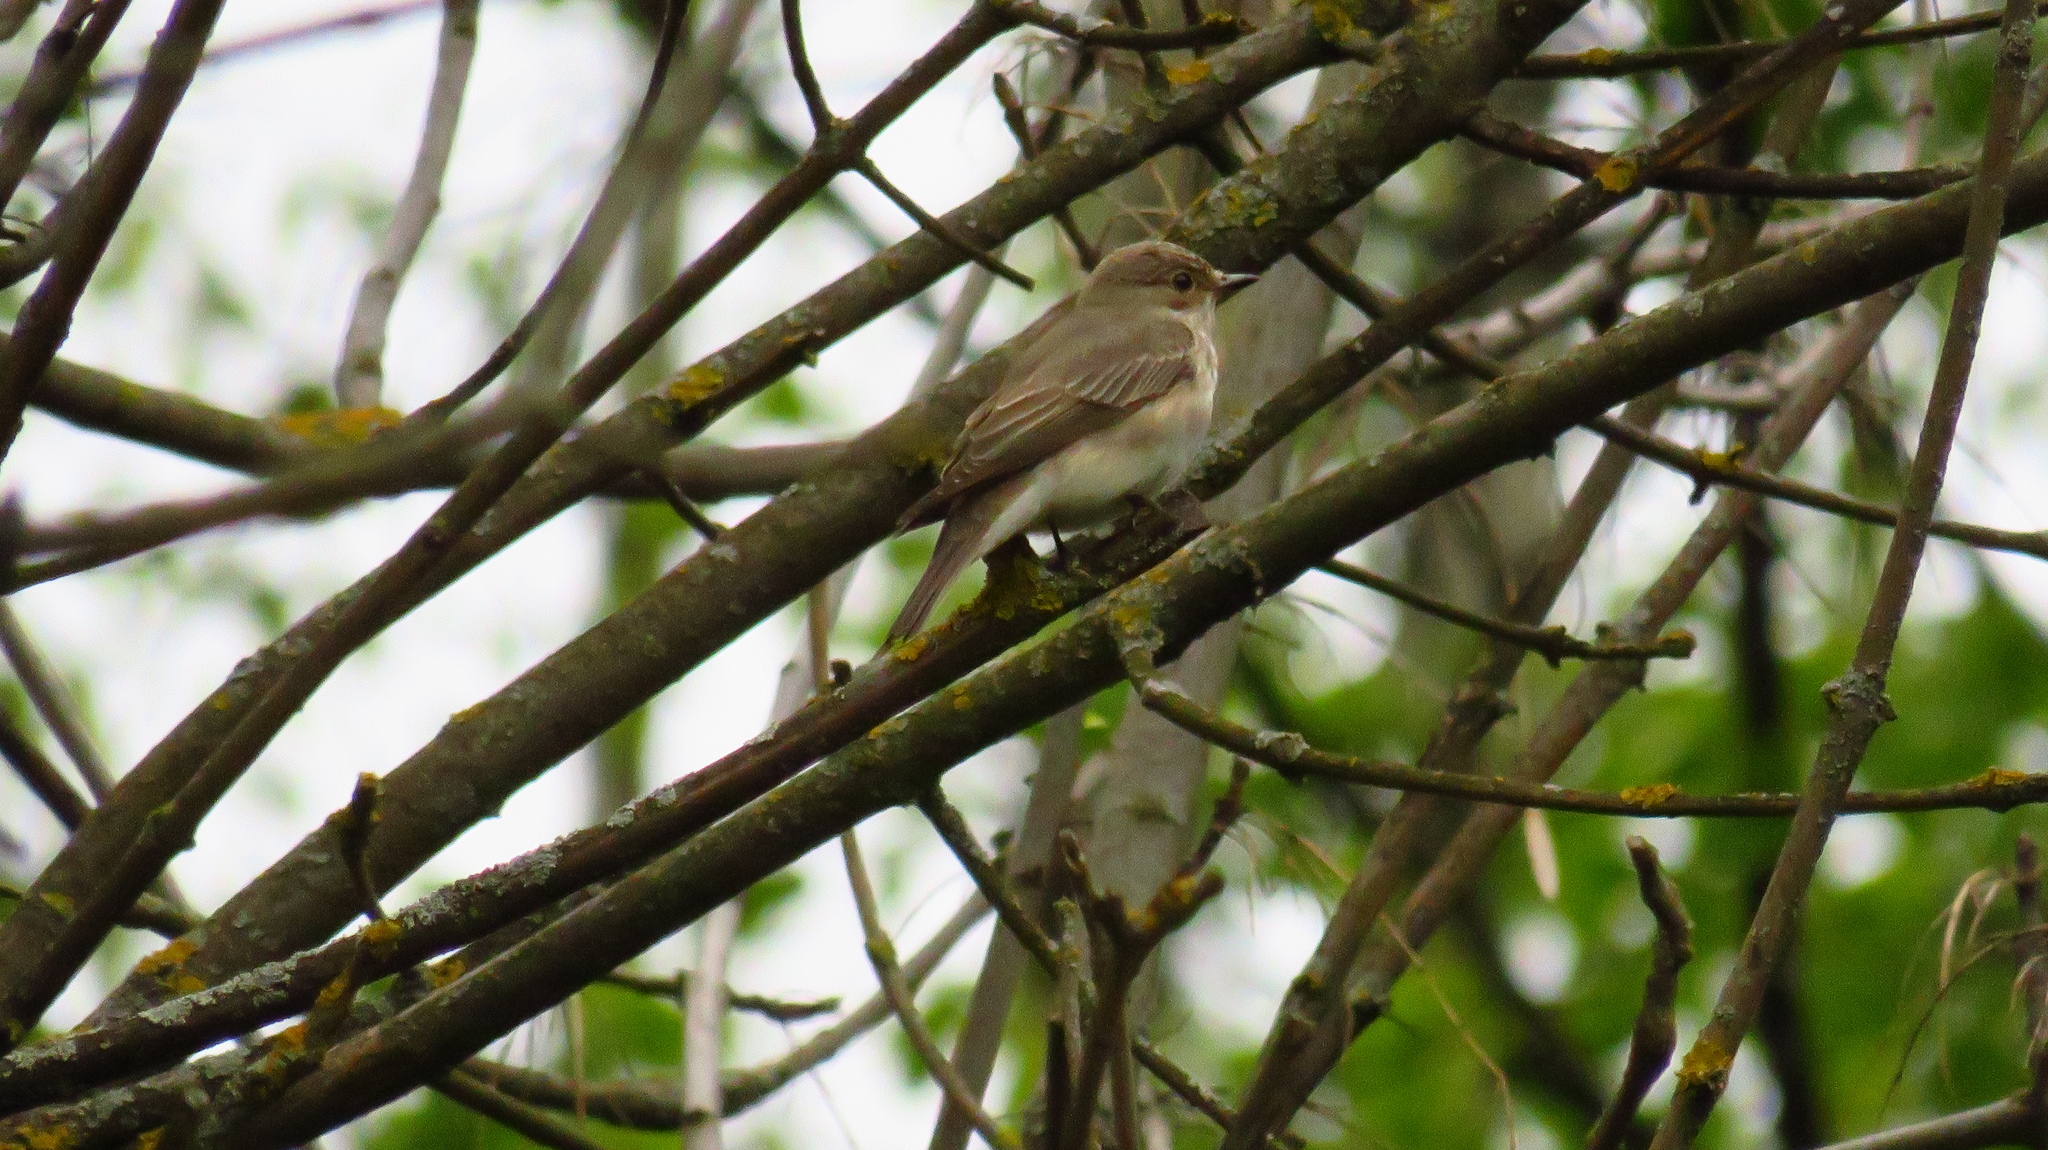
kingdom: Animalia
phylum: Chordata
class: Aves
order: Passeriformes
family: Muscicapidae
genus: Muscicapa
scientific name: Muscicapa striata
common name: Spotted flycatcher
